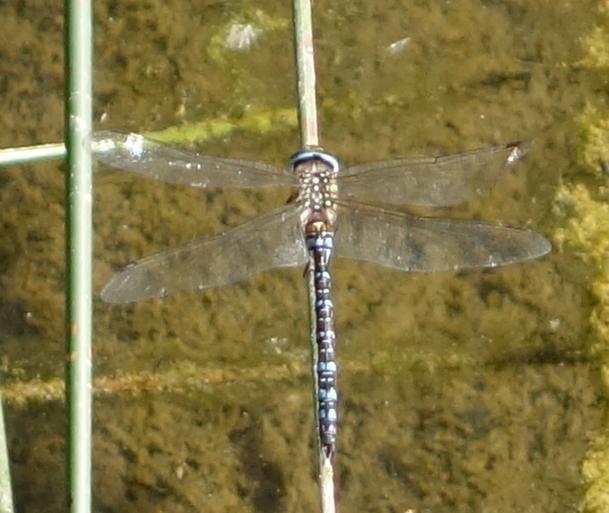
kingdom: Animalia
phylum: Arthropoda
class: Insecta
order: Odonata
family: Aeshnidae
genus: Aeshna
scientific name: Aeshna mixta
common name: Migrant hawker
